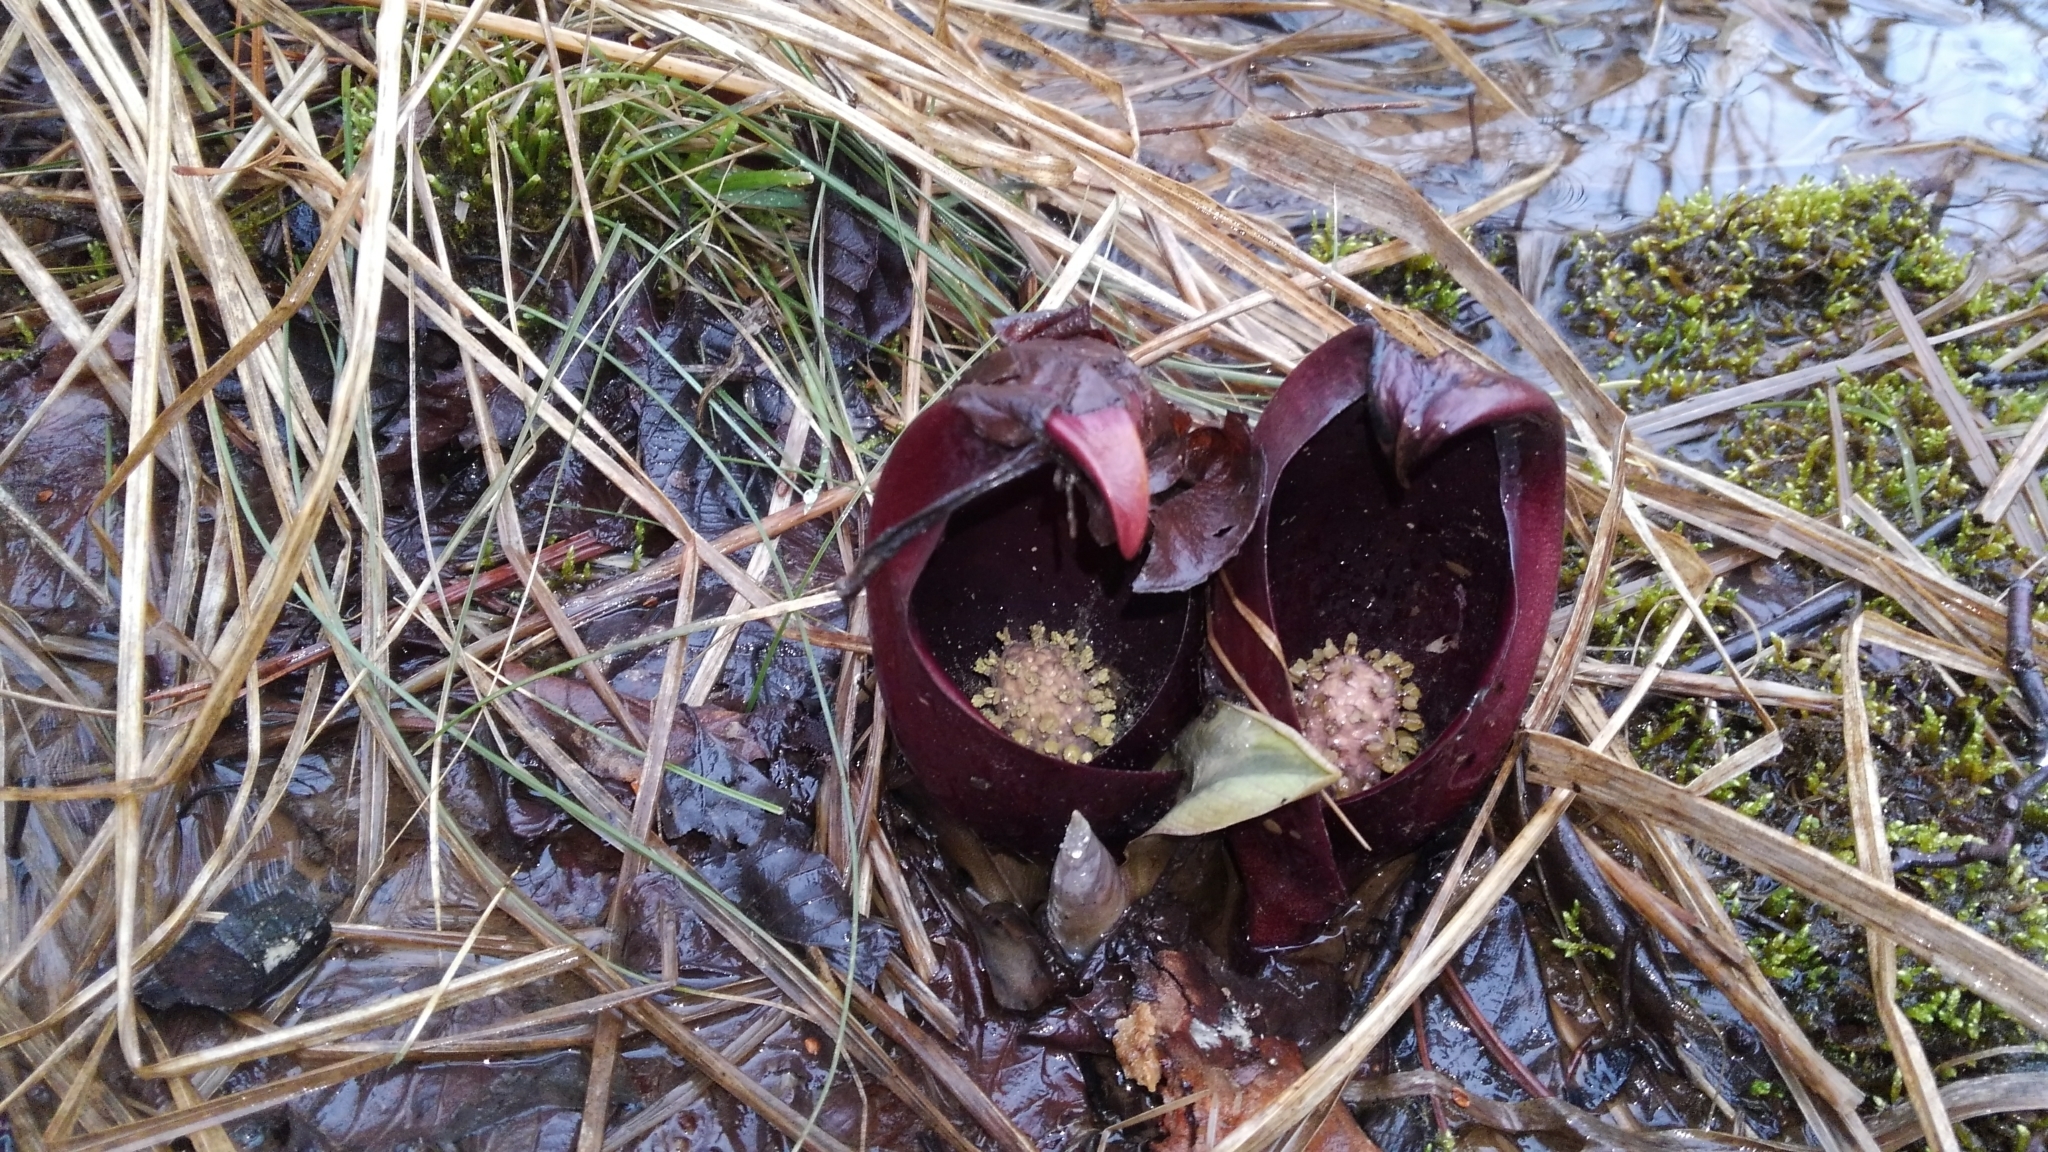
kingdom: Plantae
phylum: Tracheophyta
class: Liliopsida
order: Alismatales
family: Araceae
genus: Symplocarpus
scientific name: Symplocarpus foetidus
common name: Eastern skunk cabbage
